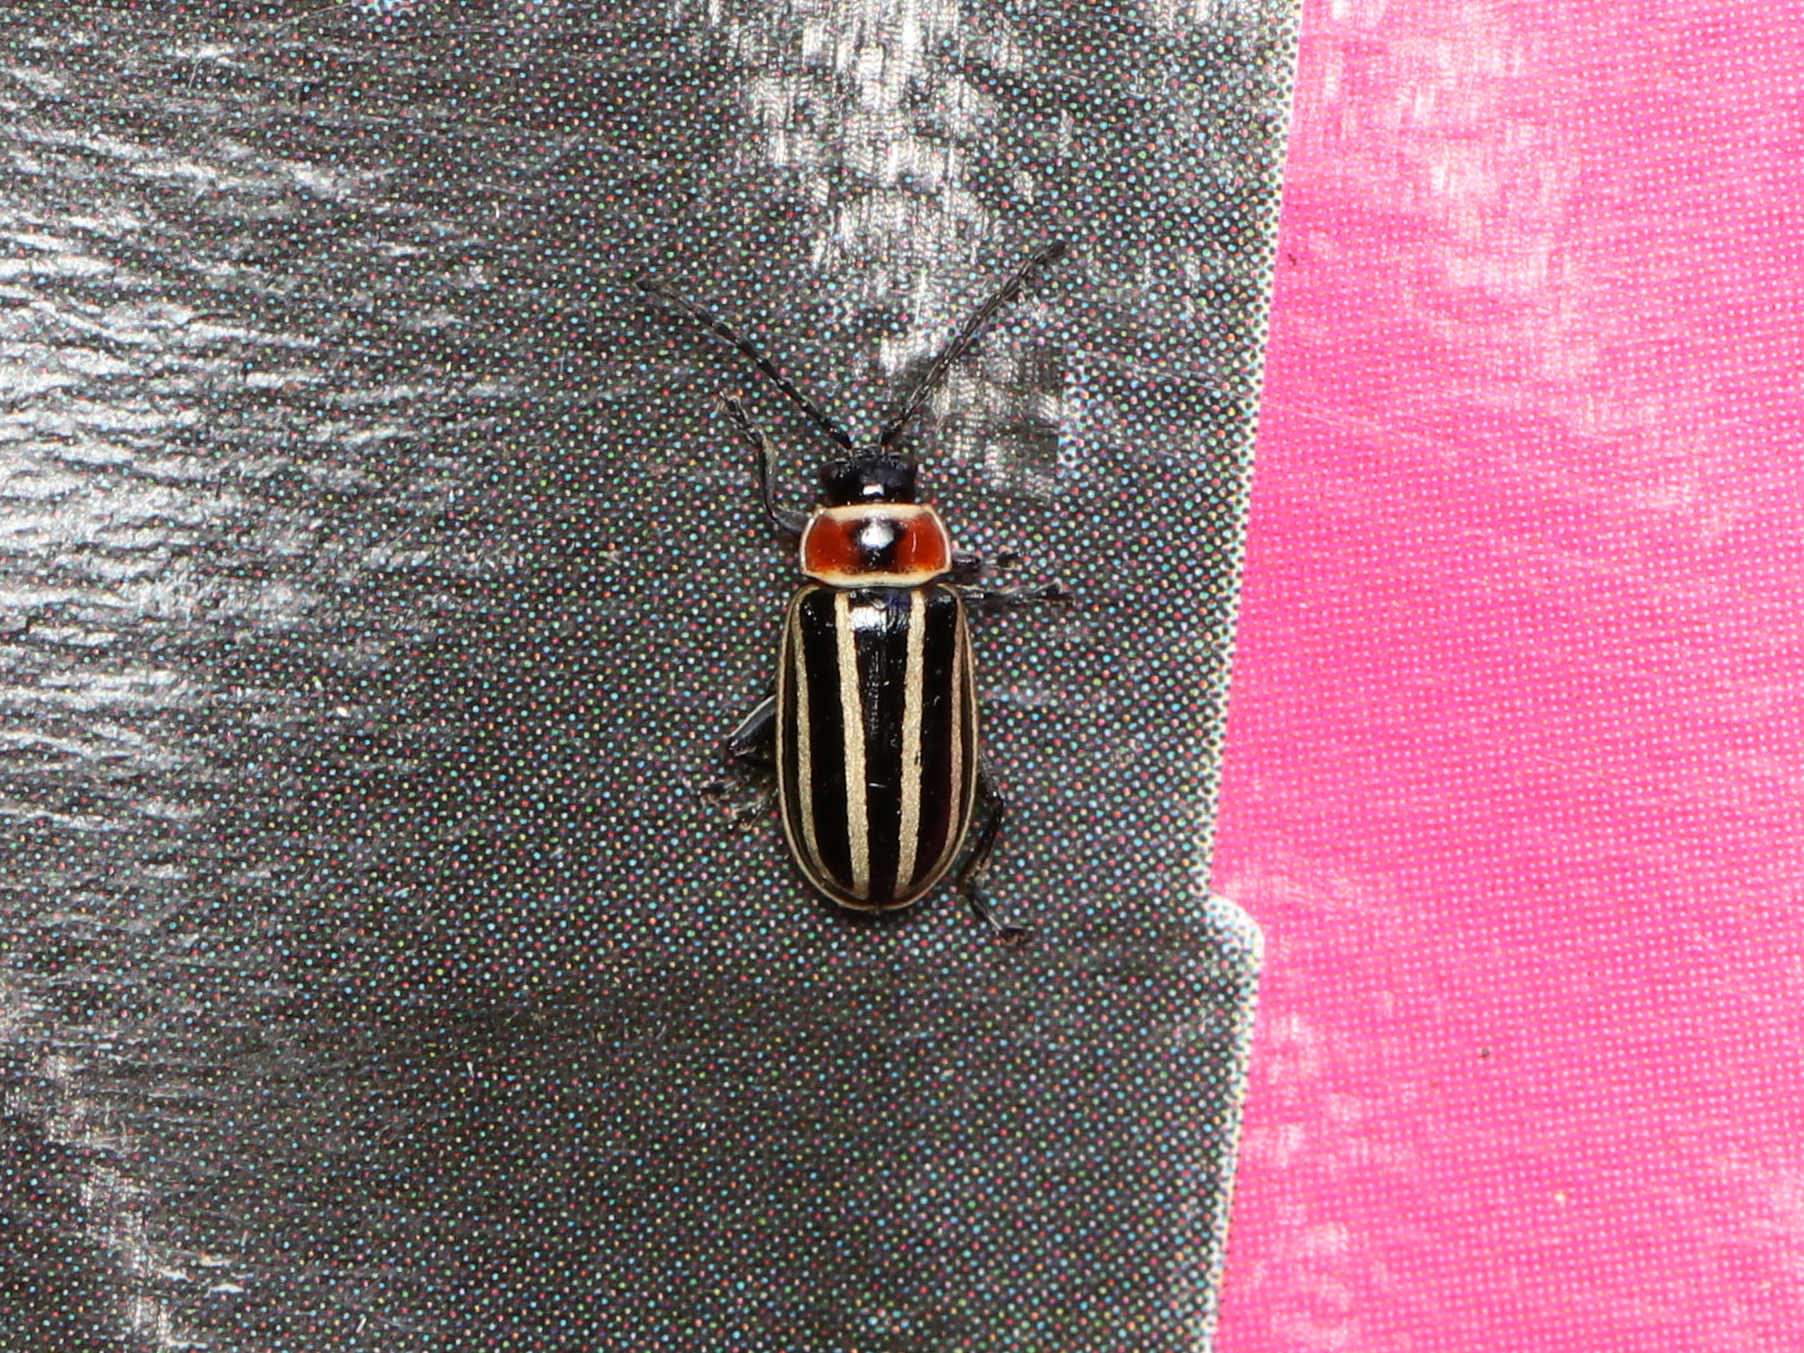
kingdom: Animalia
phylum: Arthropoda
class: Insecta
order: Coleoptera
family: Chrysomelidae
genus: Disonycha
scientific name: Disonycha pensylvanica
